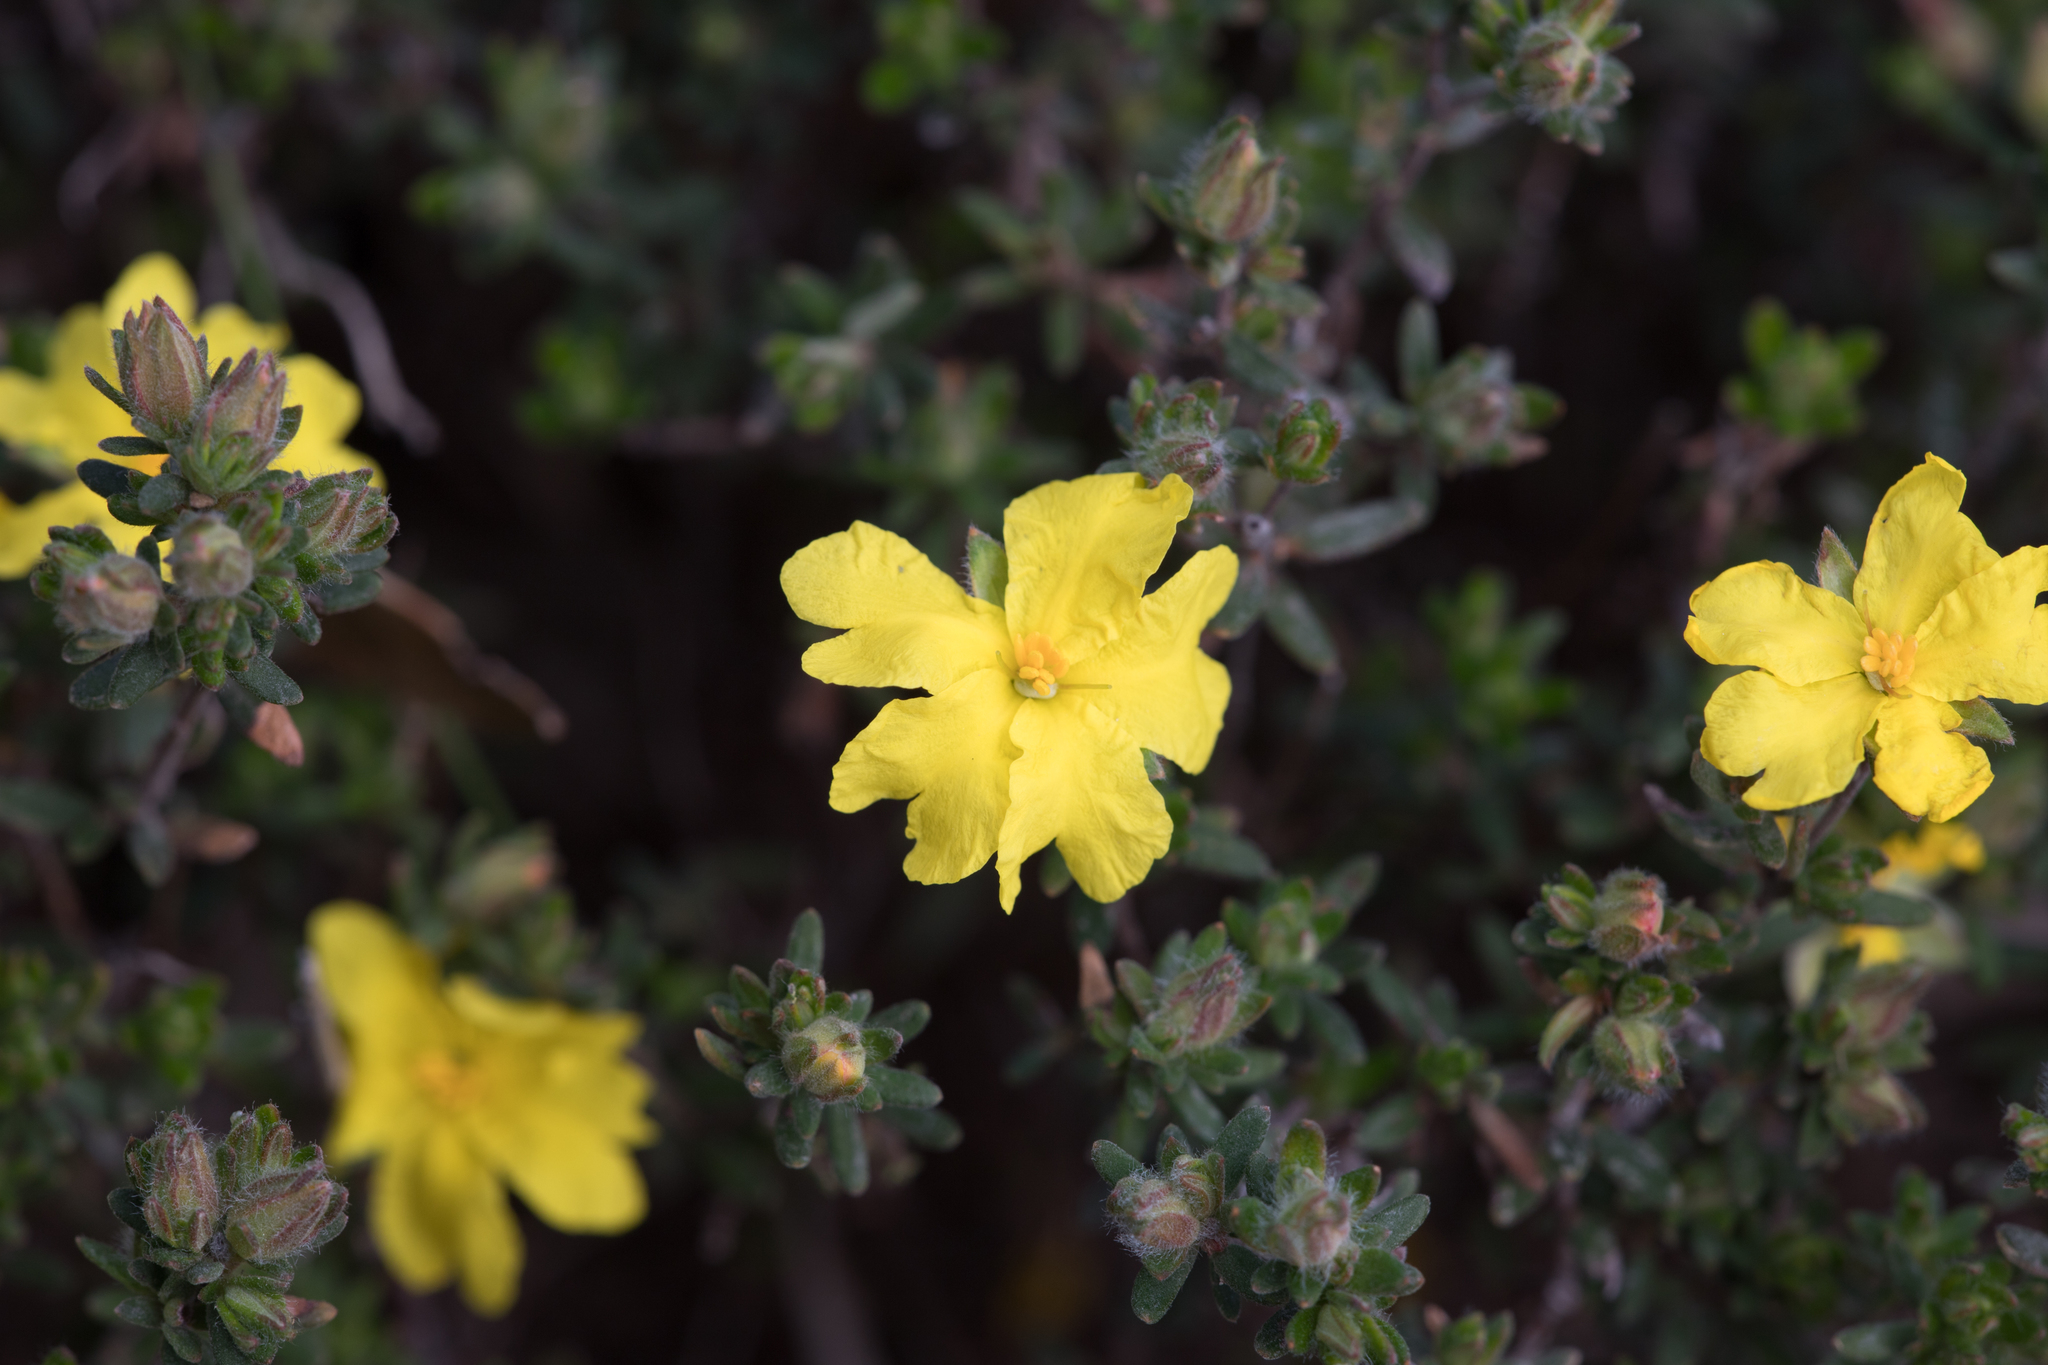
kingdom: Plantae
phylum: Tracheophyta
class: Magnoliopsida
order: Dilleniales
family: Dilleniaceae
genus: Hibbertia
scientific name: Hibbertia crinita
